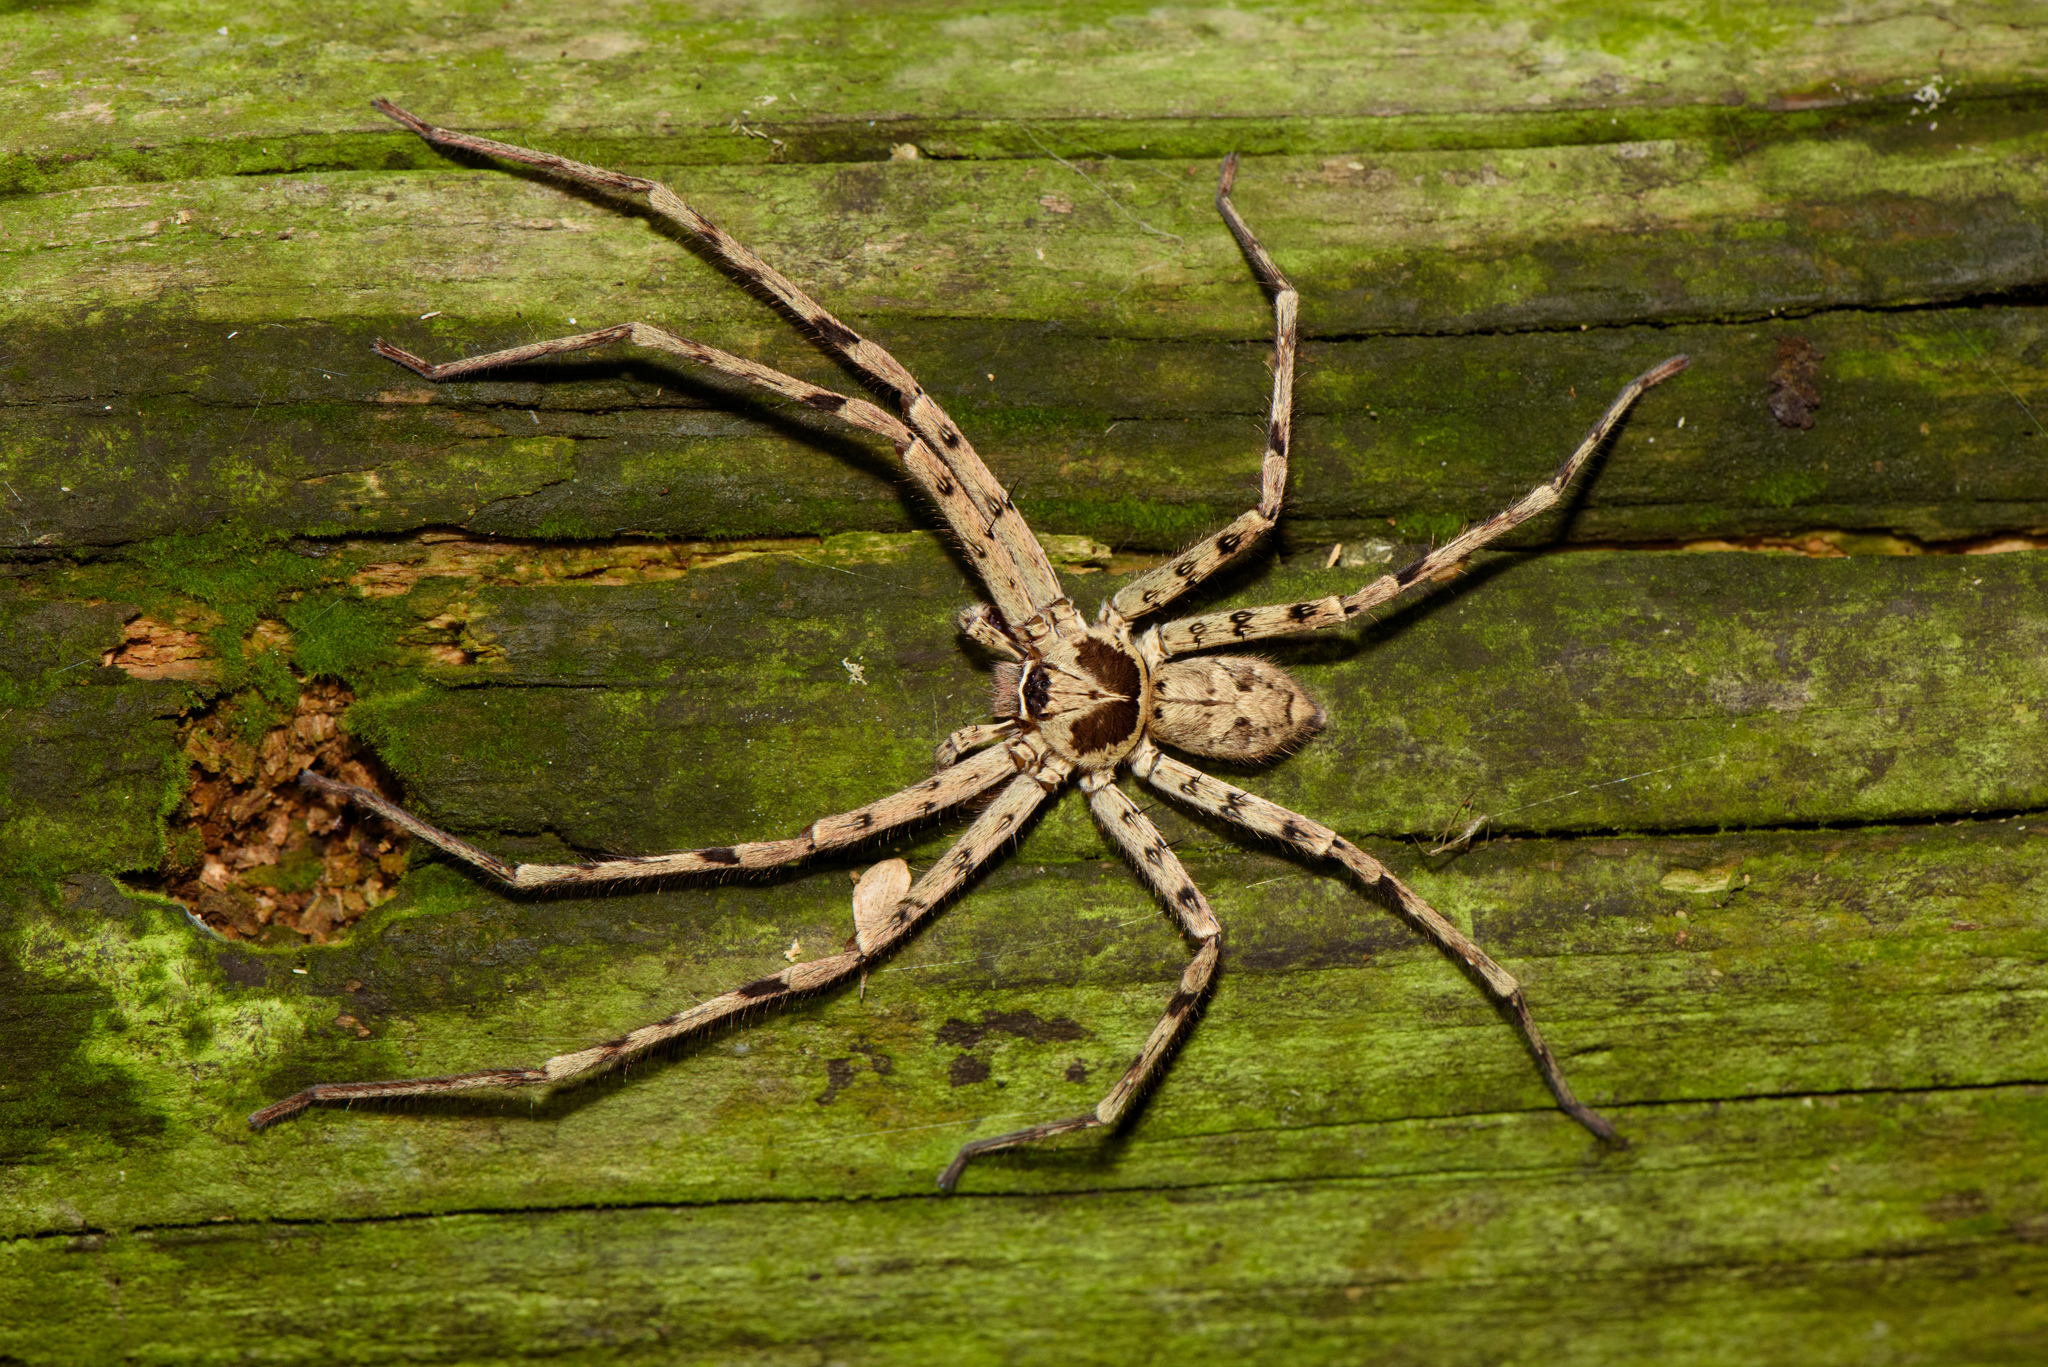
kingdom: Animalia
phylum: Arthropoda
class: Arachnida
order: Araneae
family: Sparassidae
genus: Heteropoda
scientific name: Heteropoda venatoria
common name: Huntsman spider
